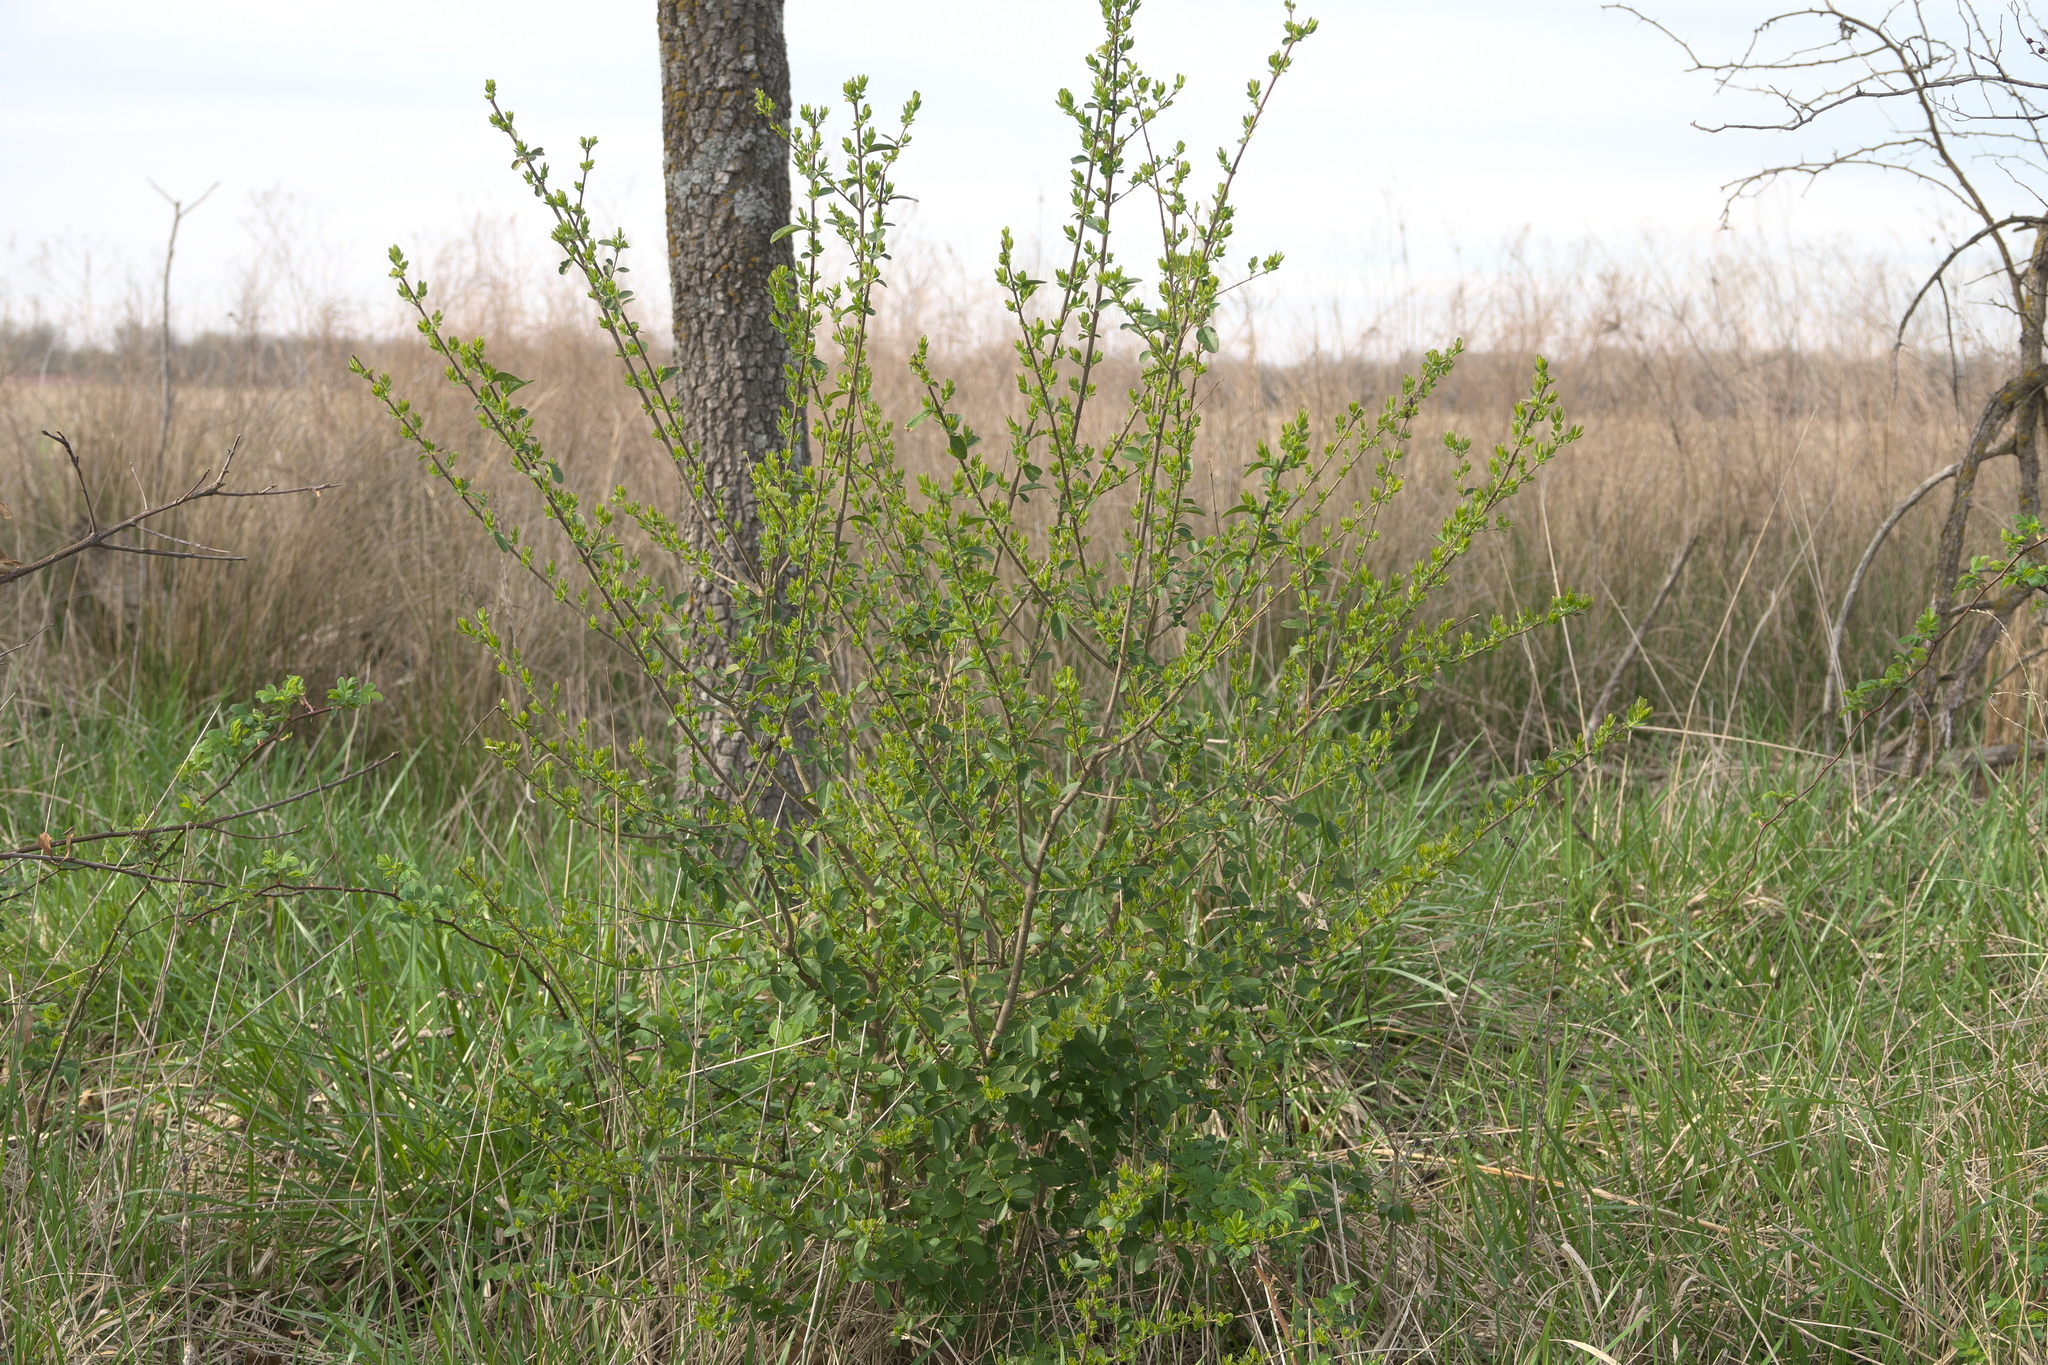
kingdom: Plantae
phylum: Tracheophyta
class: Magnoliopsida
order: Lamiales
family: Oleaceae
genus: Ligustrum
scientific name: Ligustrum sinense
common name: Chinese privet
